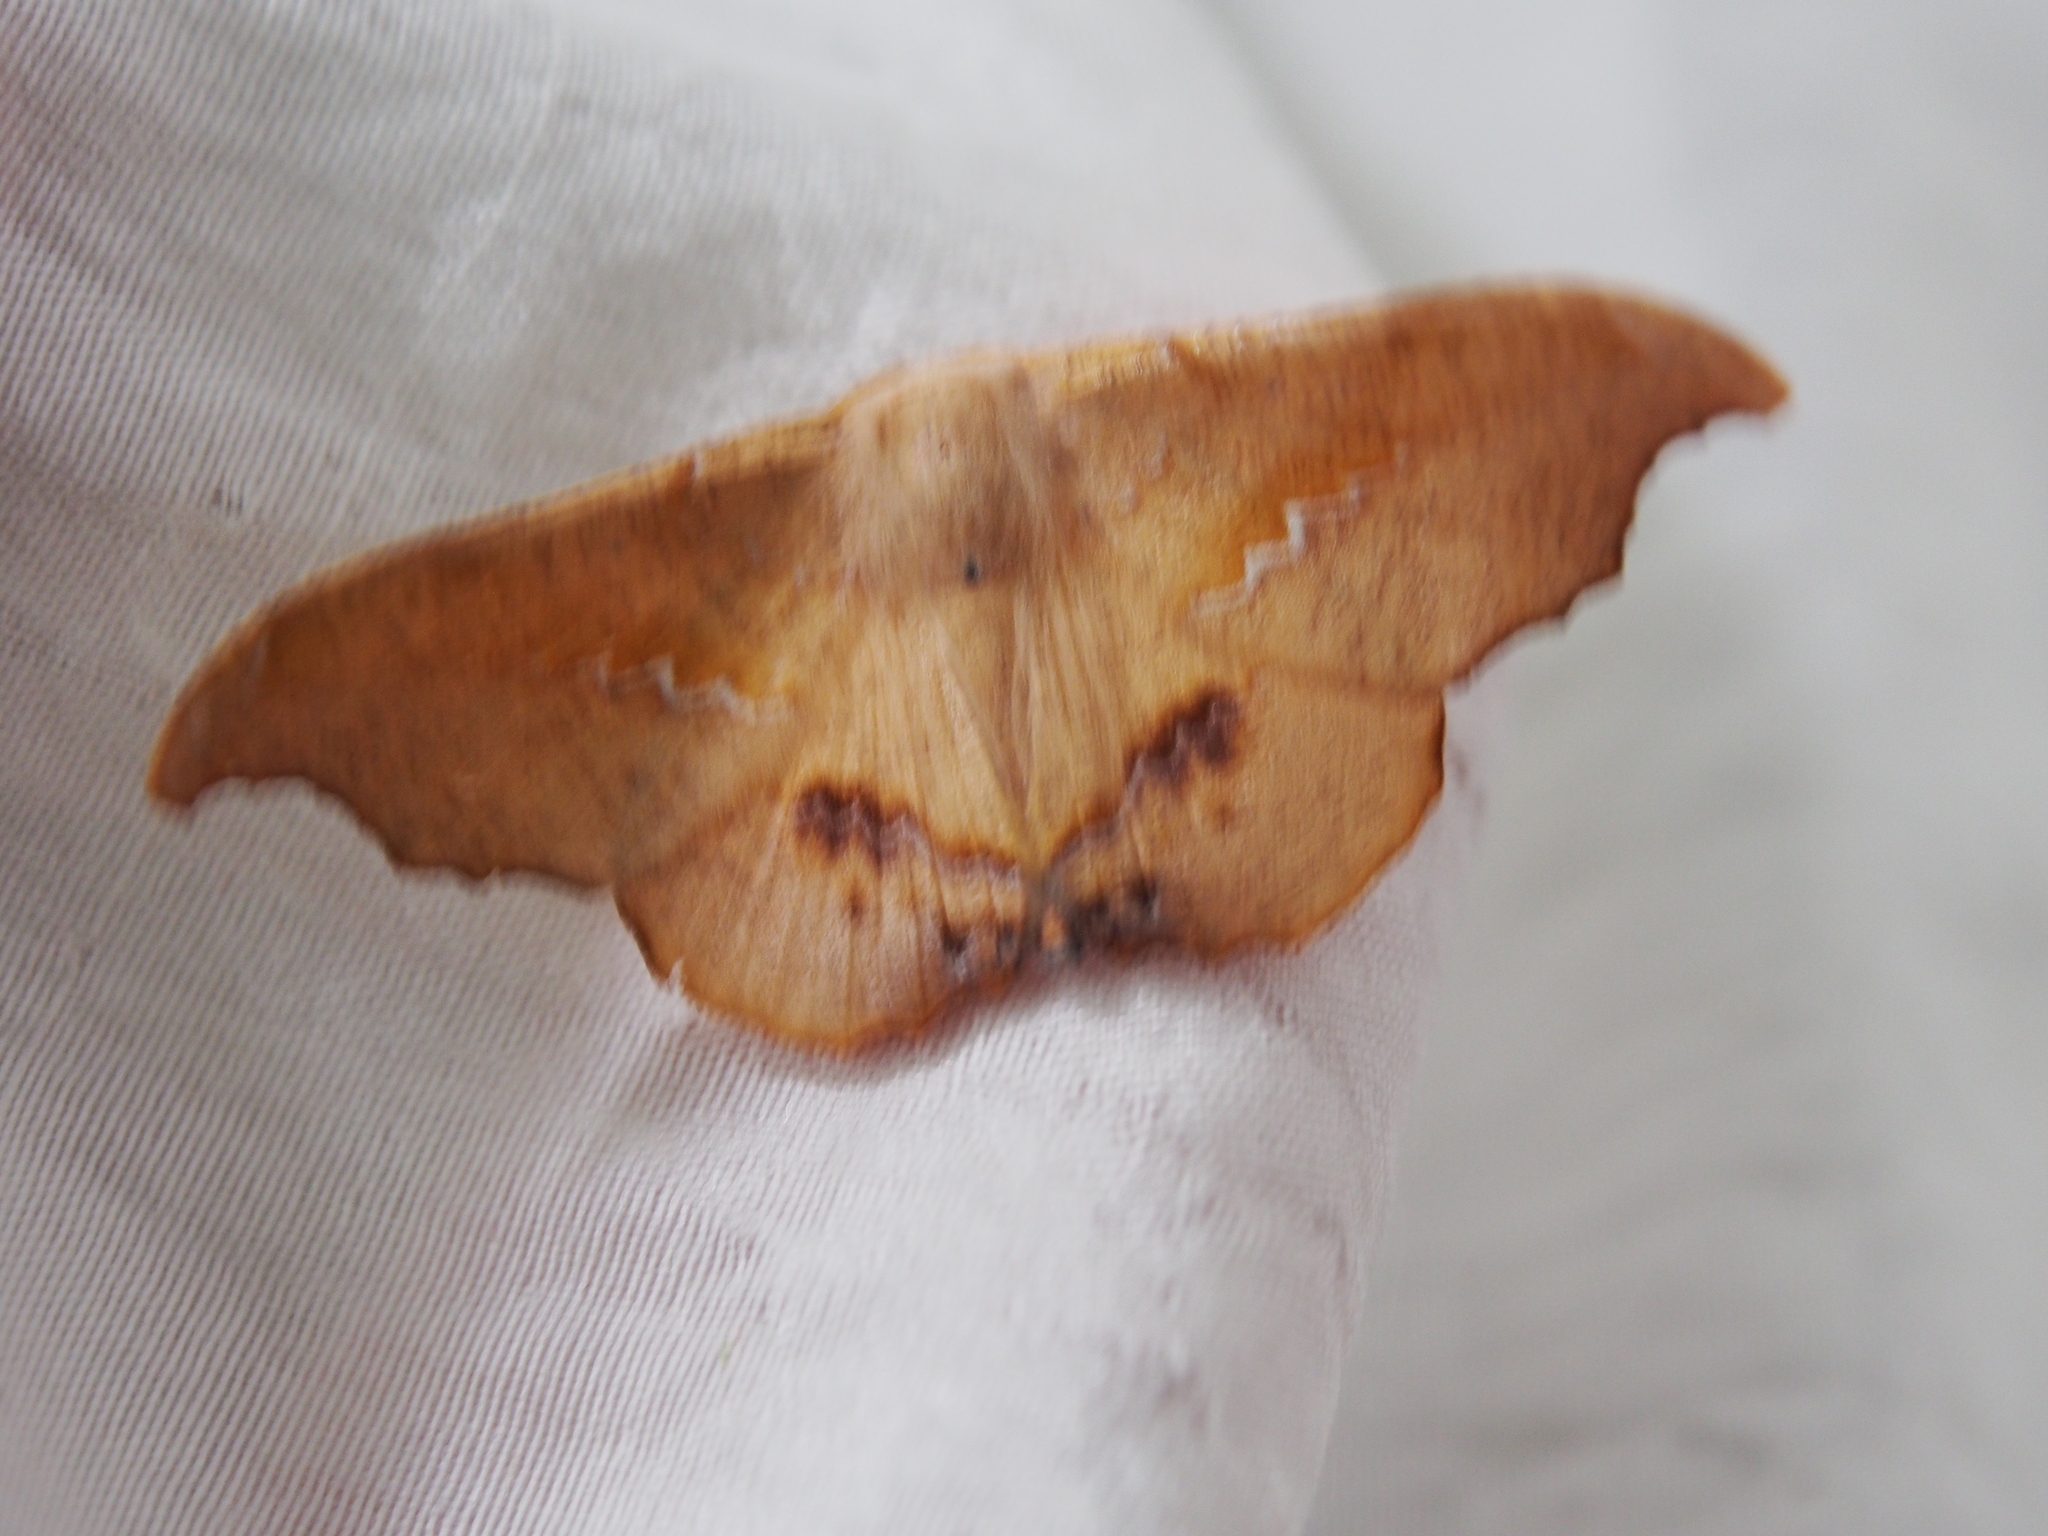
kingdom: Animalia
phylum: Arthropoda
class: Insecta
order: Lepidoptera
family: Geometridae
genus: Patalene
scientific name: Patalene asychisaria
